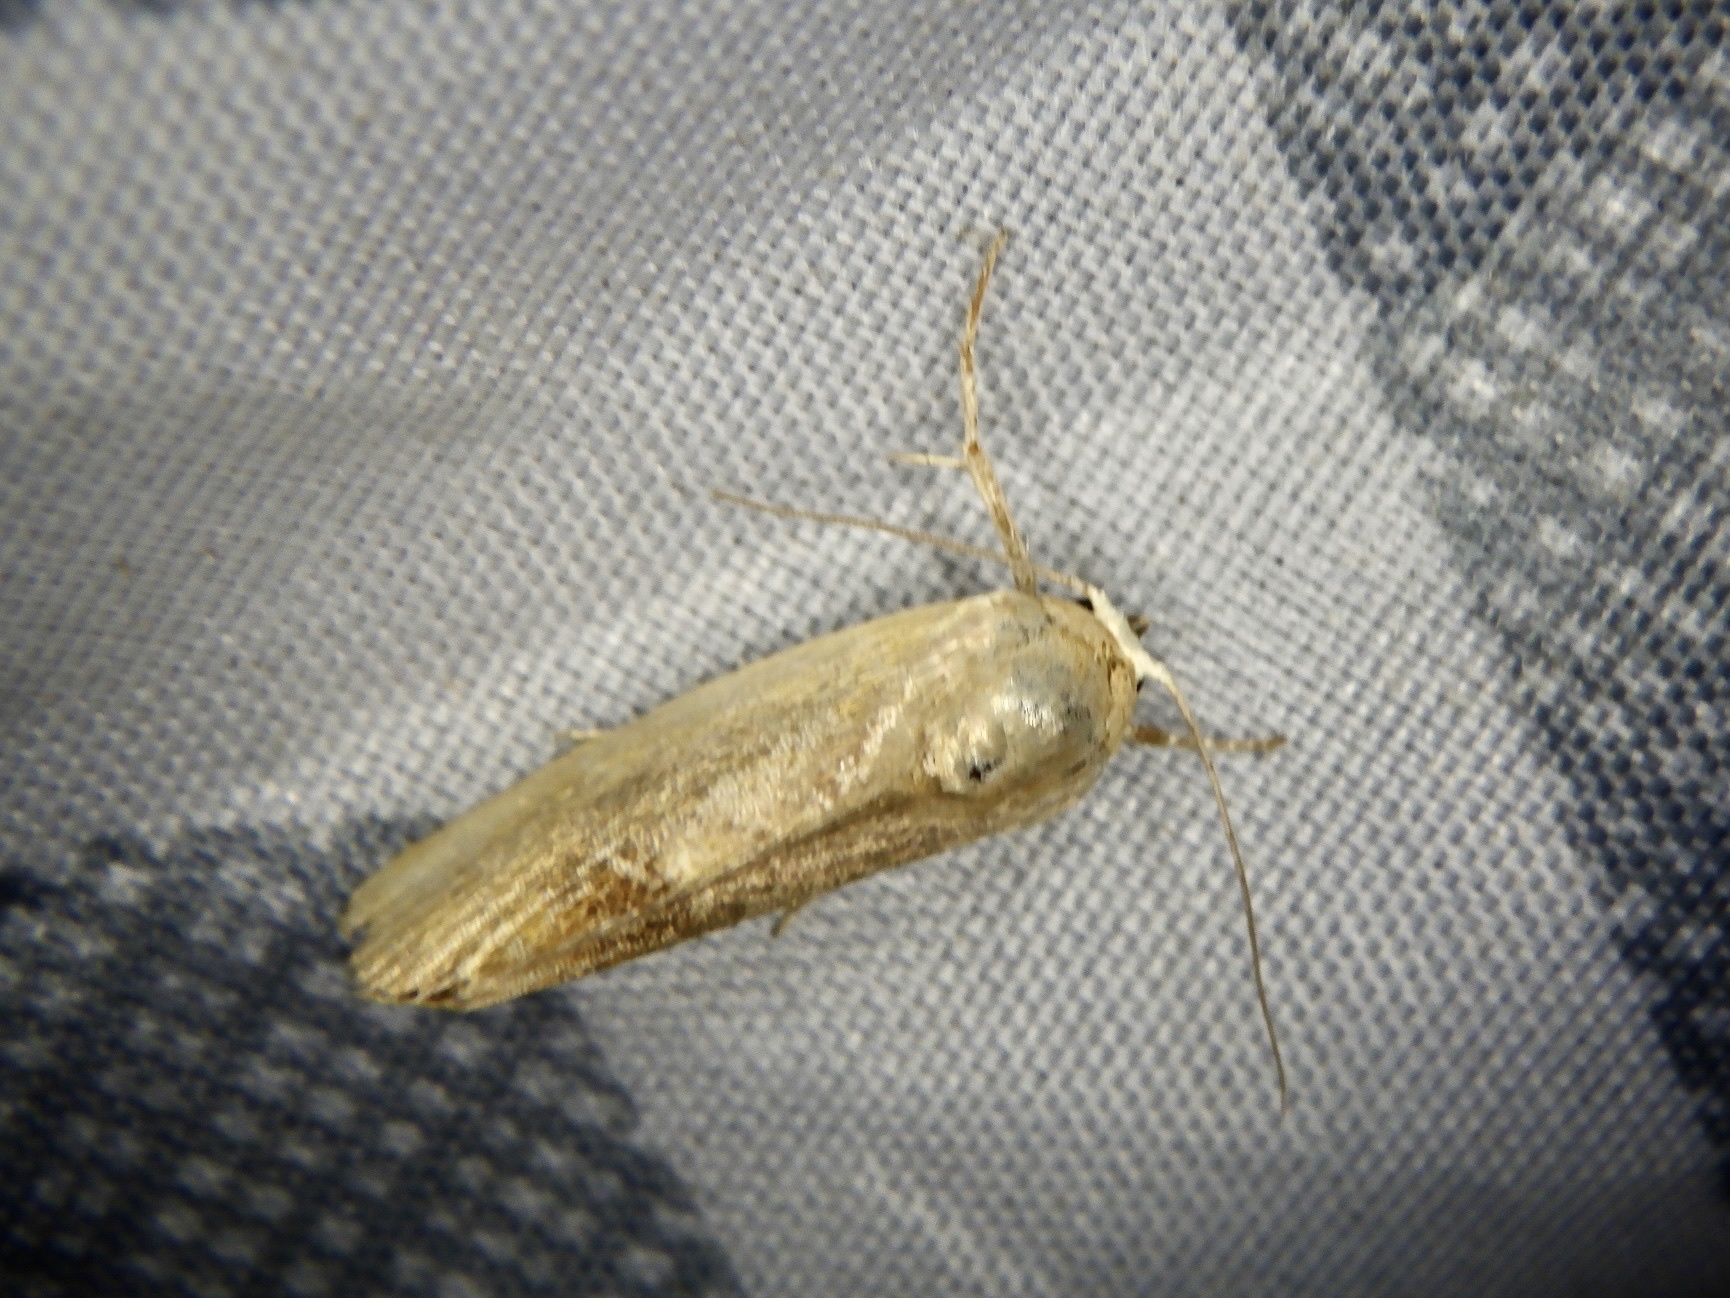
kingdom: Animalia
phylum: Arthropoda
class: Insecta
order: Lepidoptera
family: Nolidae
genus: Iragaodes
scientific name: Iragaodes nobilis
